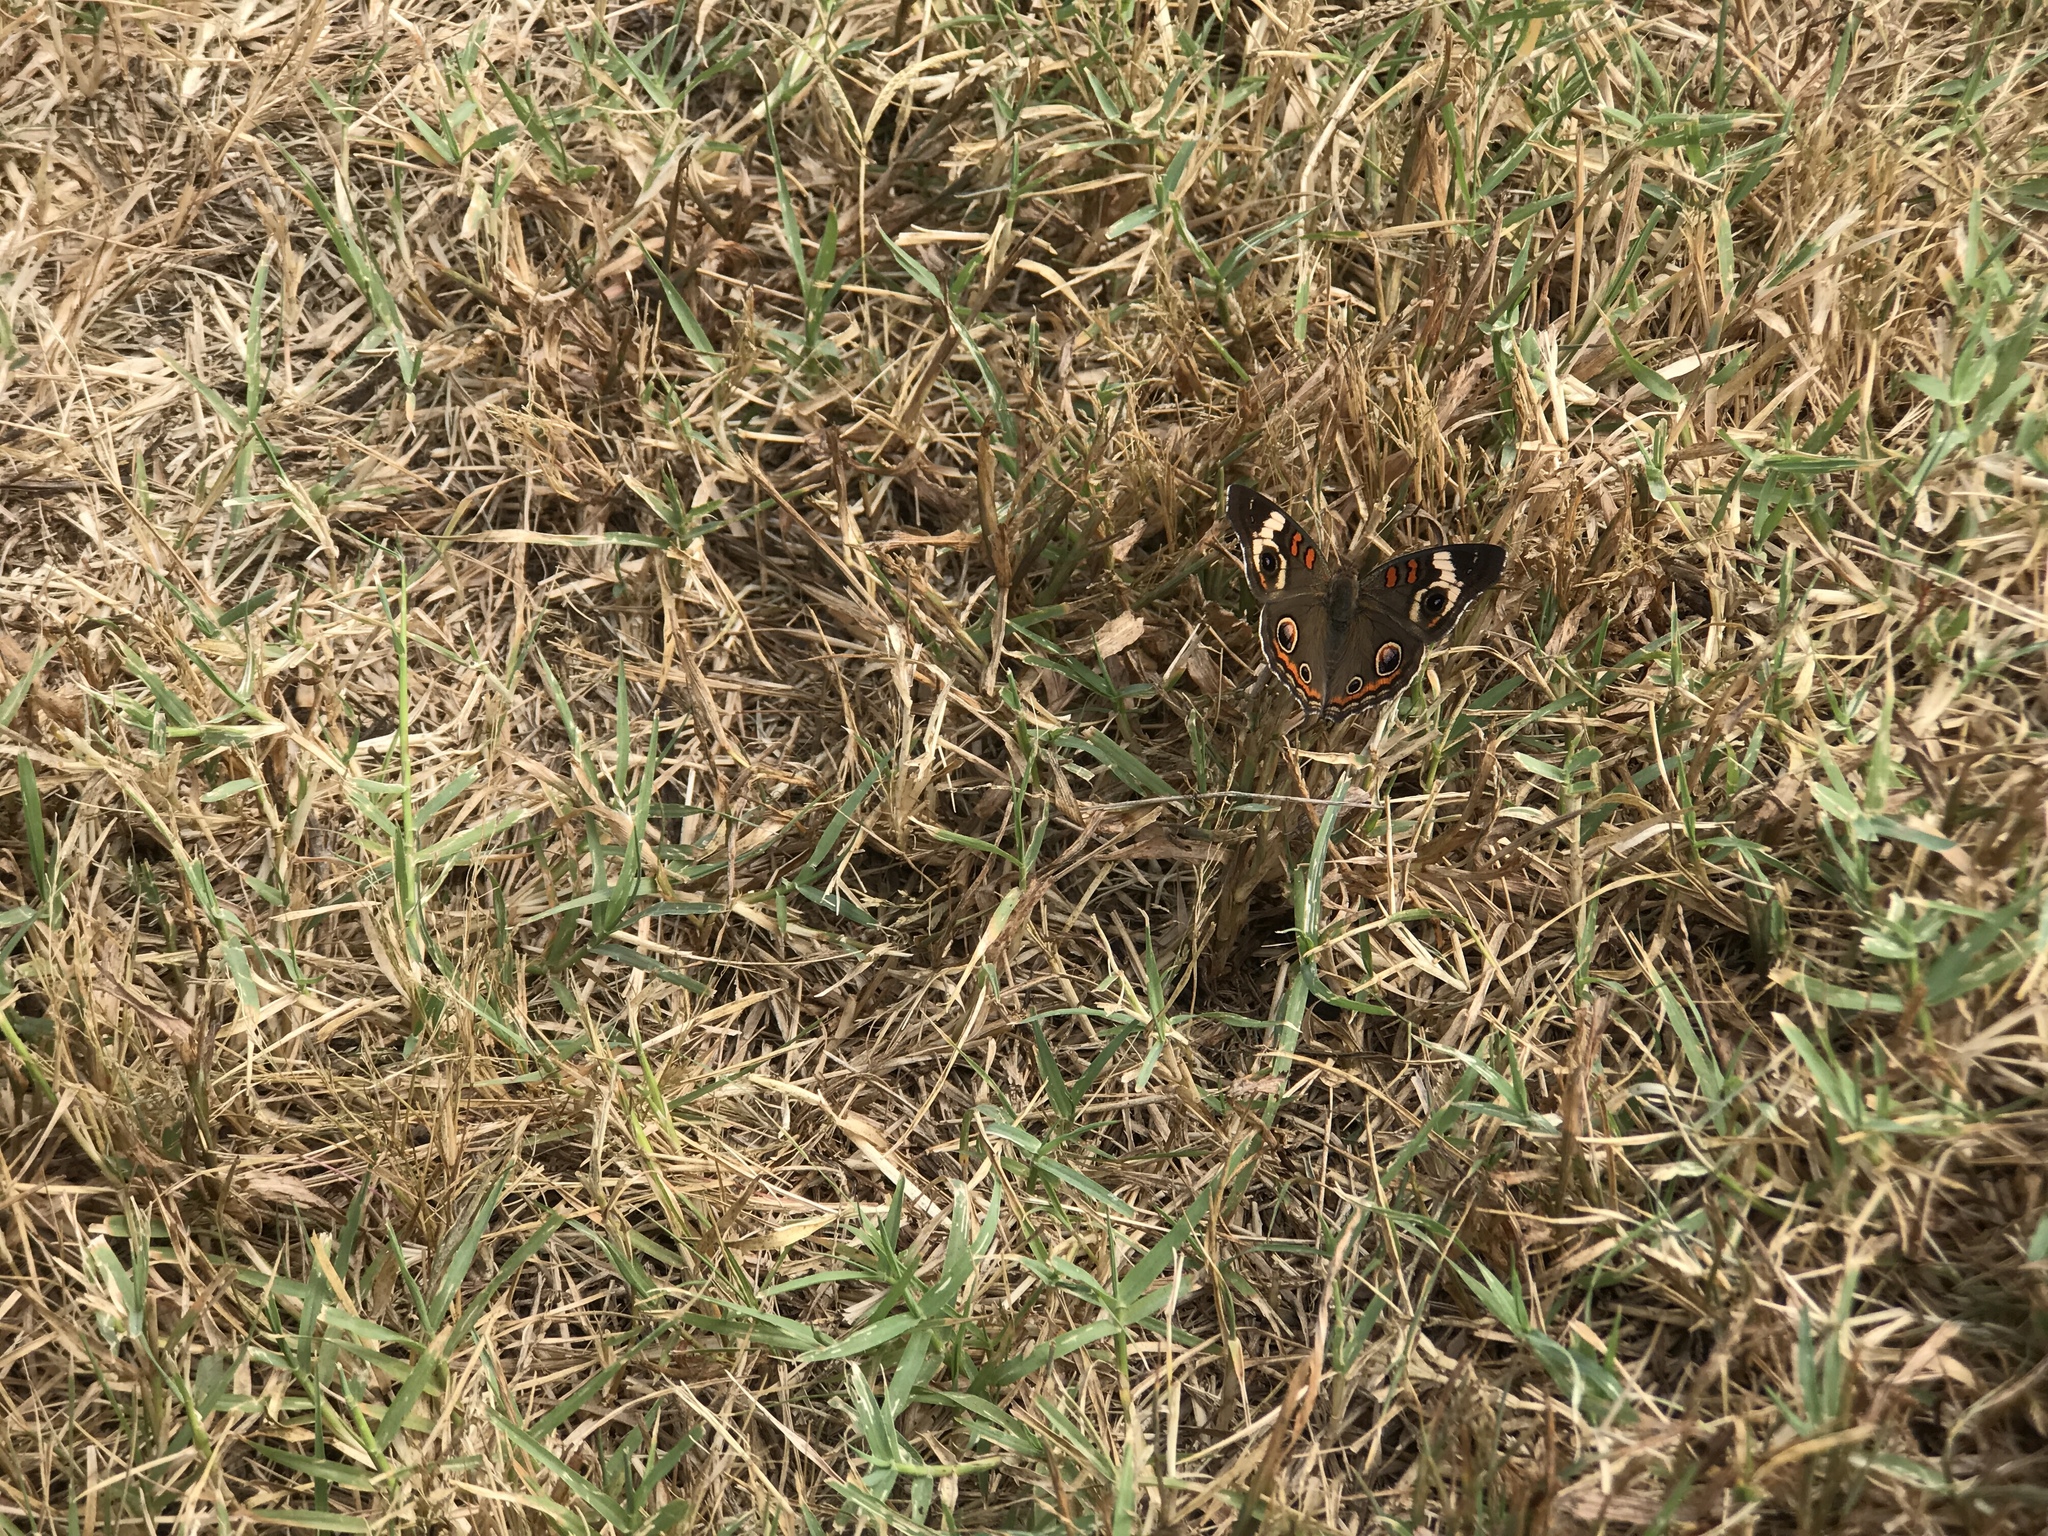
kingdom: Animalia
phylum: Arthropoda
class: Insecta
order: Lepidoptera
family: Nymphalidae
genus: Junonia
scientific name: Junonia coenia
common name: Common buckeye
